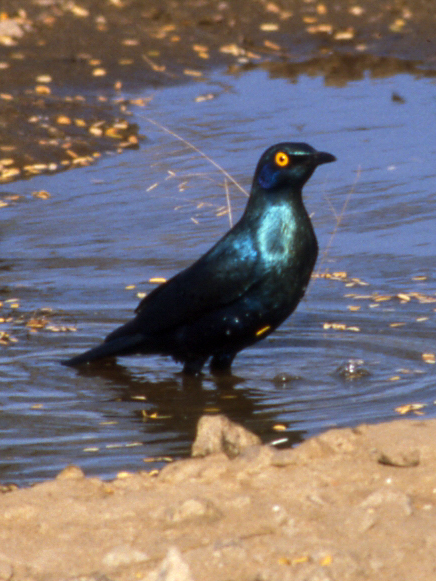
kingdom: Animalia
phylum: Chordata
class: Aves
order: Passeriformes
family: Sturnidae
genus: Lamprotornis
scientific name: Lamprotornis chalybaeus
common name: Greater blue-eared starling
